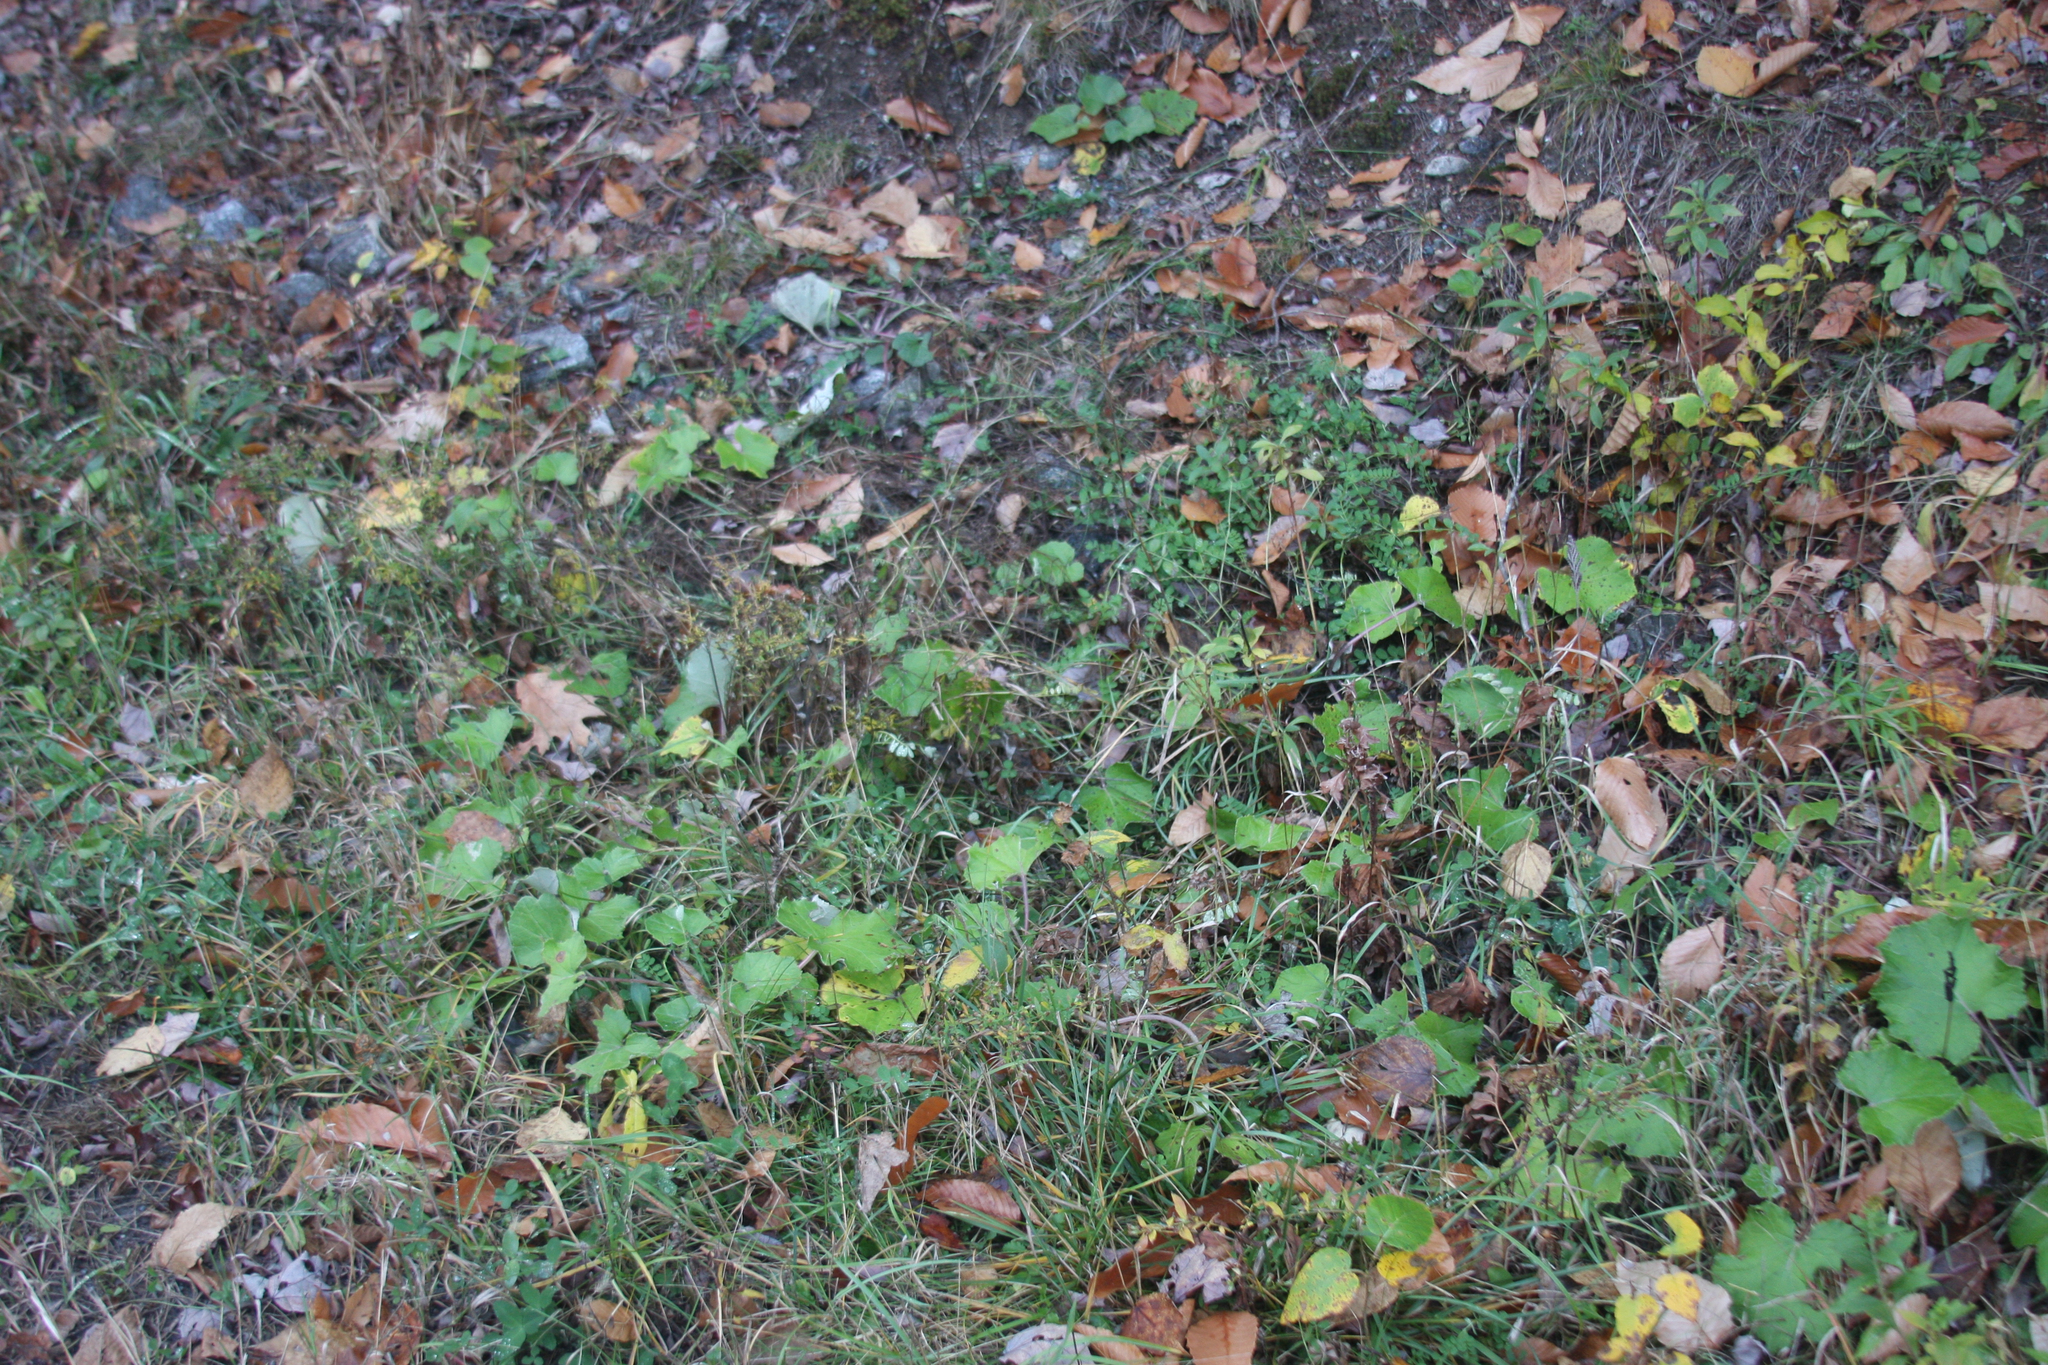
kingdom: Plantae
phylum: Tracheophyta
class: Magnoliopsida
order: Asterales
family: Asteraceae
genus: Tussilago
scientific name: Tussilago farfara
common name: Coltsfoot
